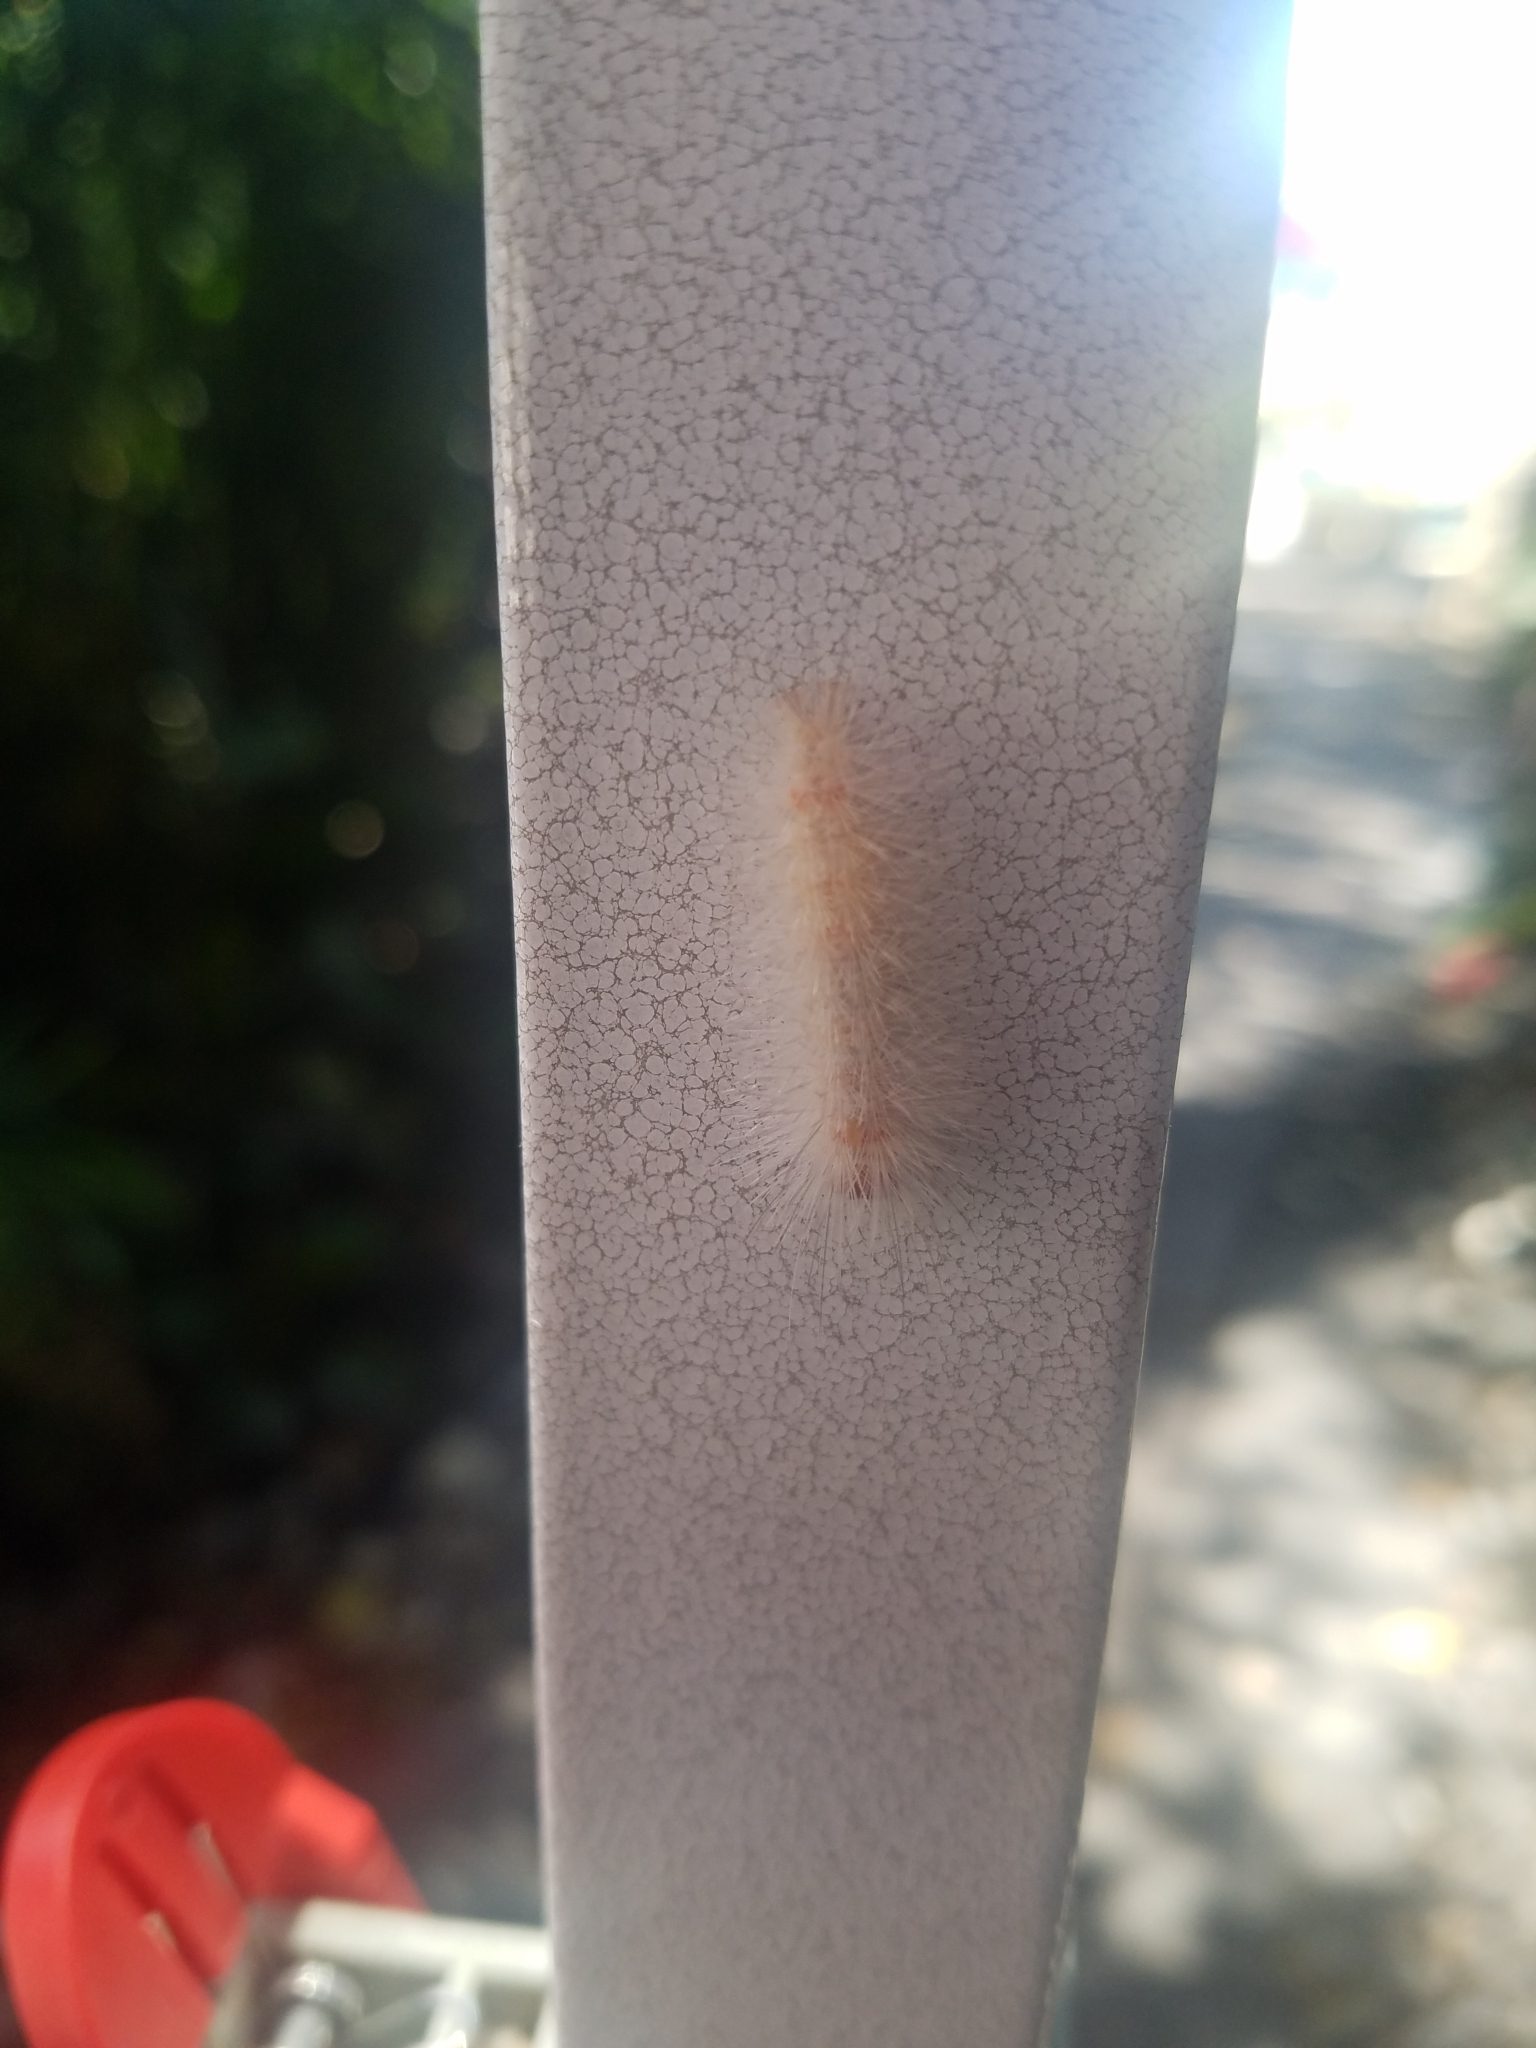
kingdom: Animalia
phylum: Arthropoda
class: Insecta
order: Lepidoptera
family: Erebidae
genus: Lymire
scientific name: Lymire edwardsii
